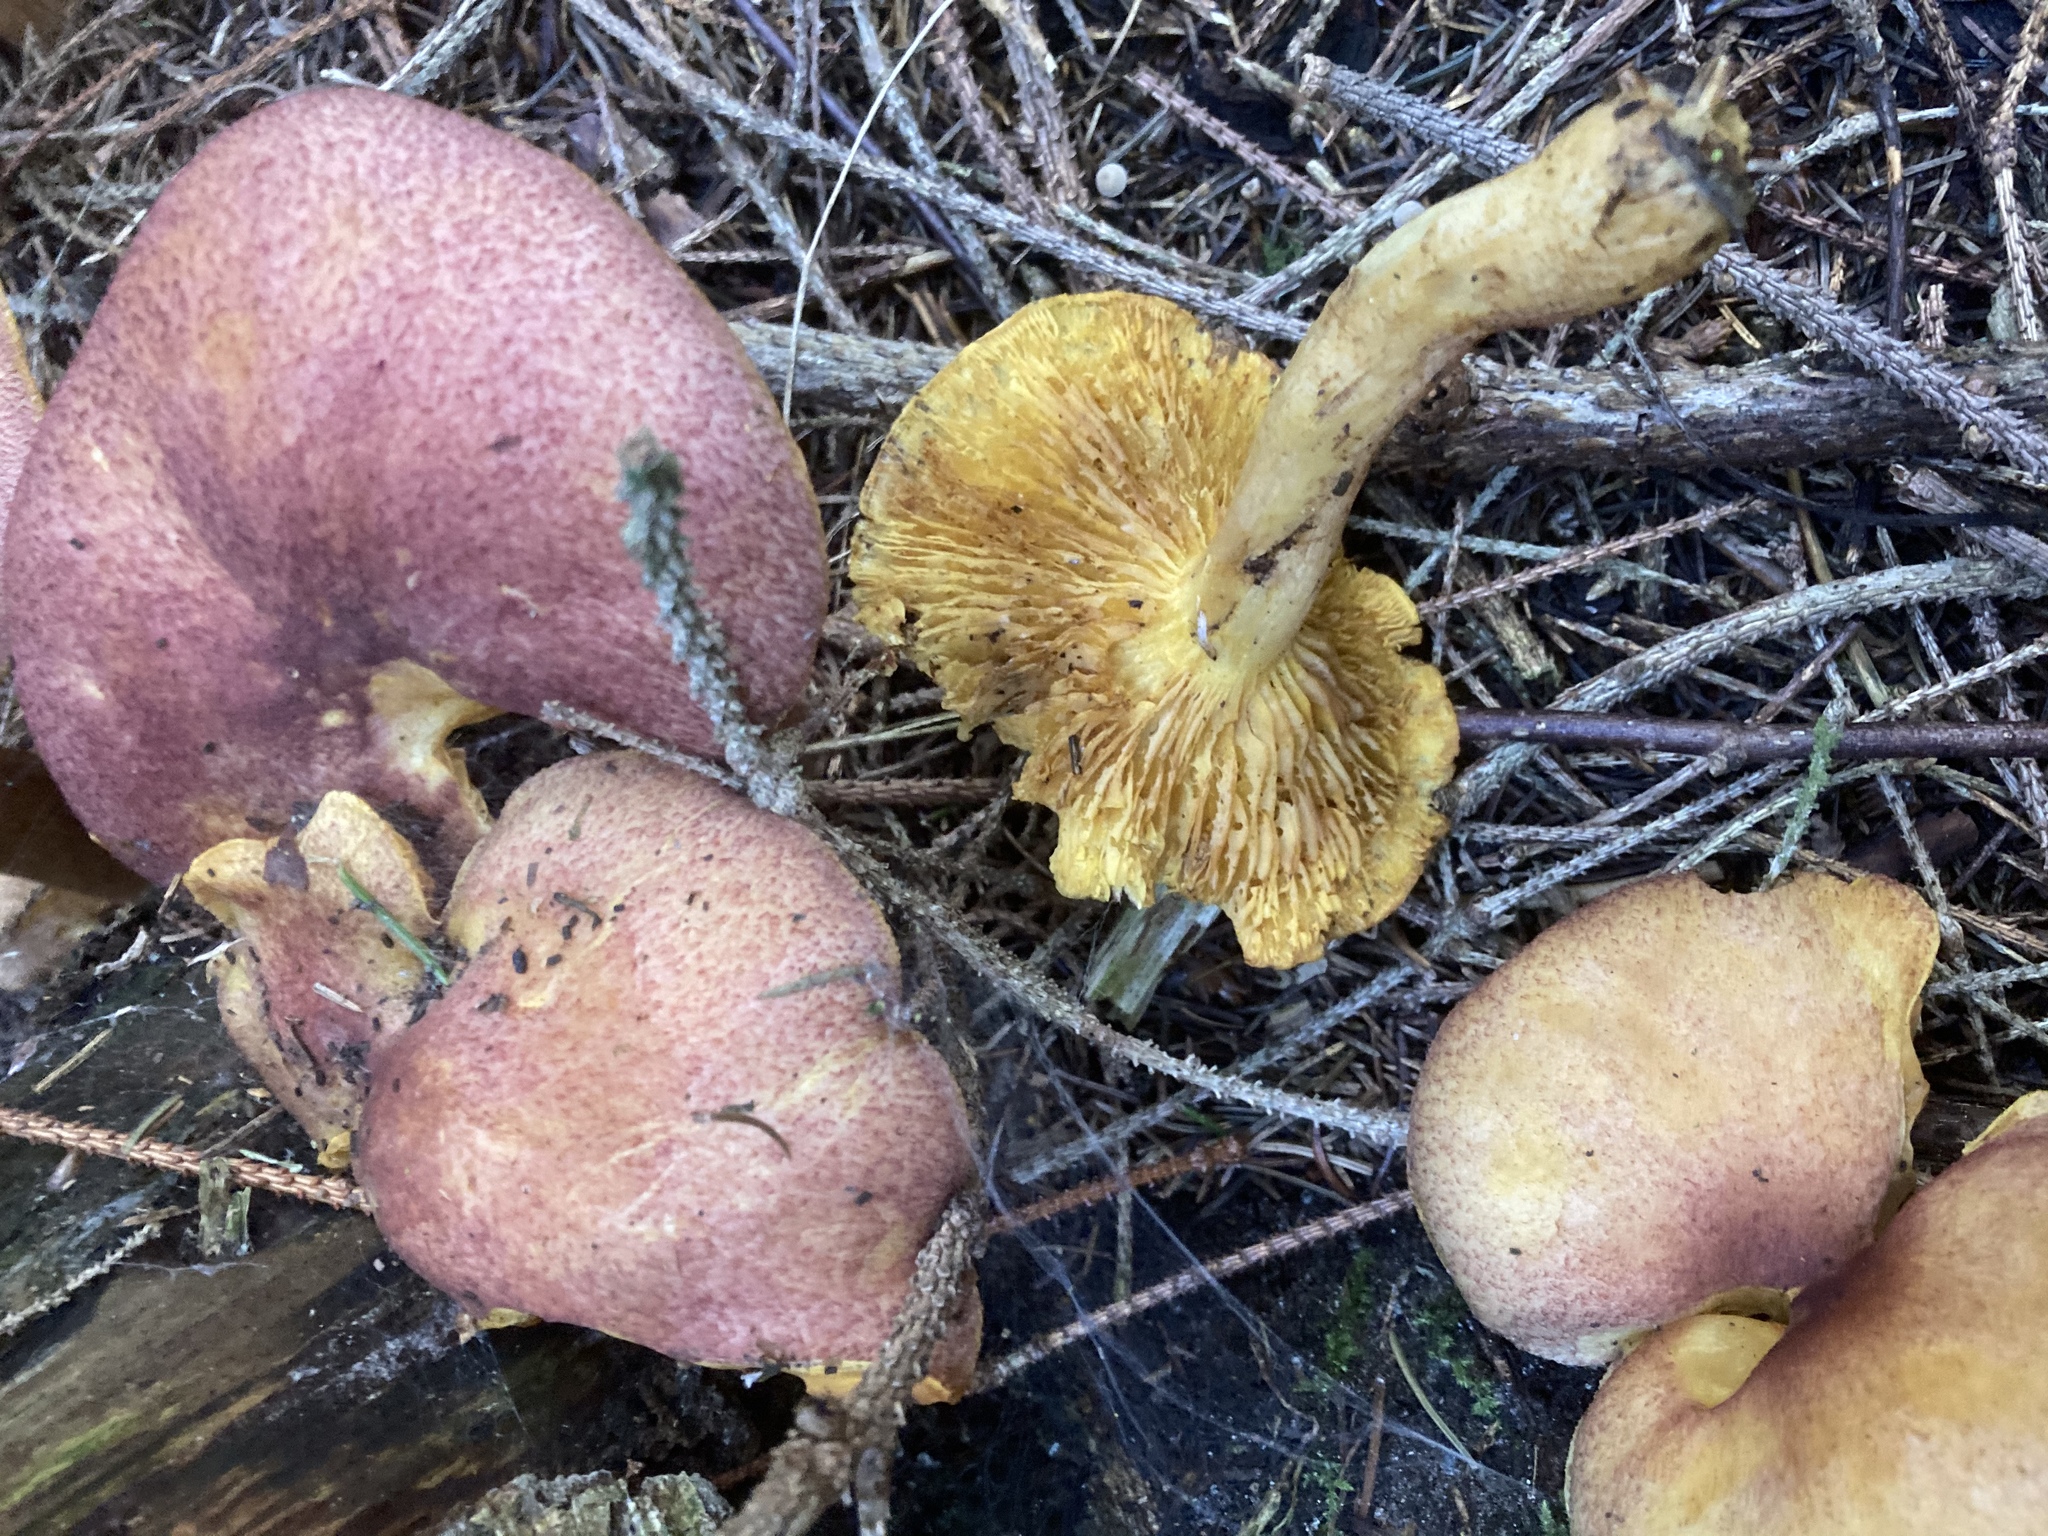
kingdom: Fungi
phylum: Basidiomycota
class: Agaricomycetes
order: Agaricales
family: Tricholomataceae
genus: Tricholomopsis
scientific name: Tricholomopsis rutilans
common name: Plums and custard
